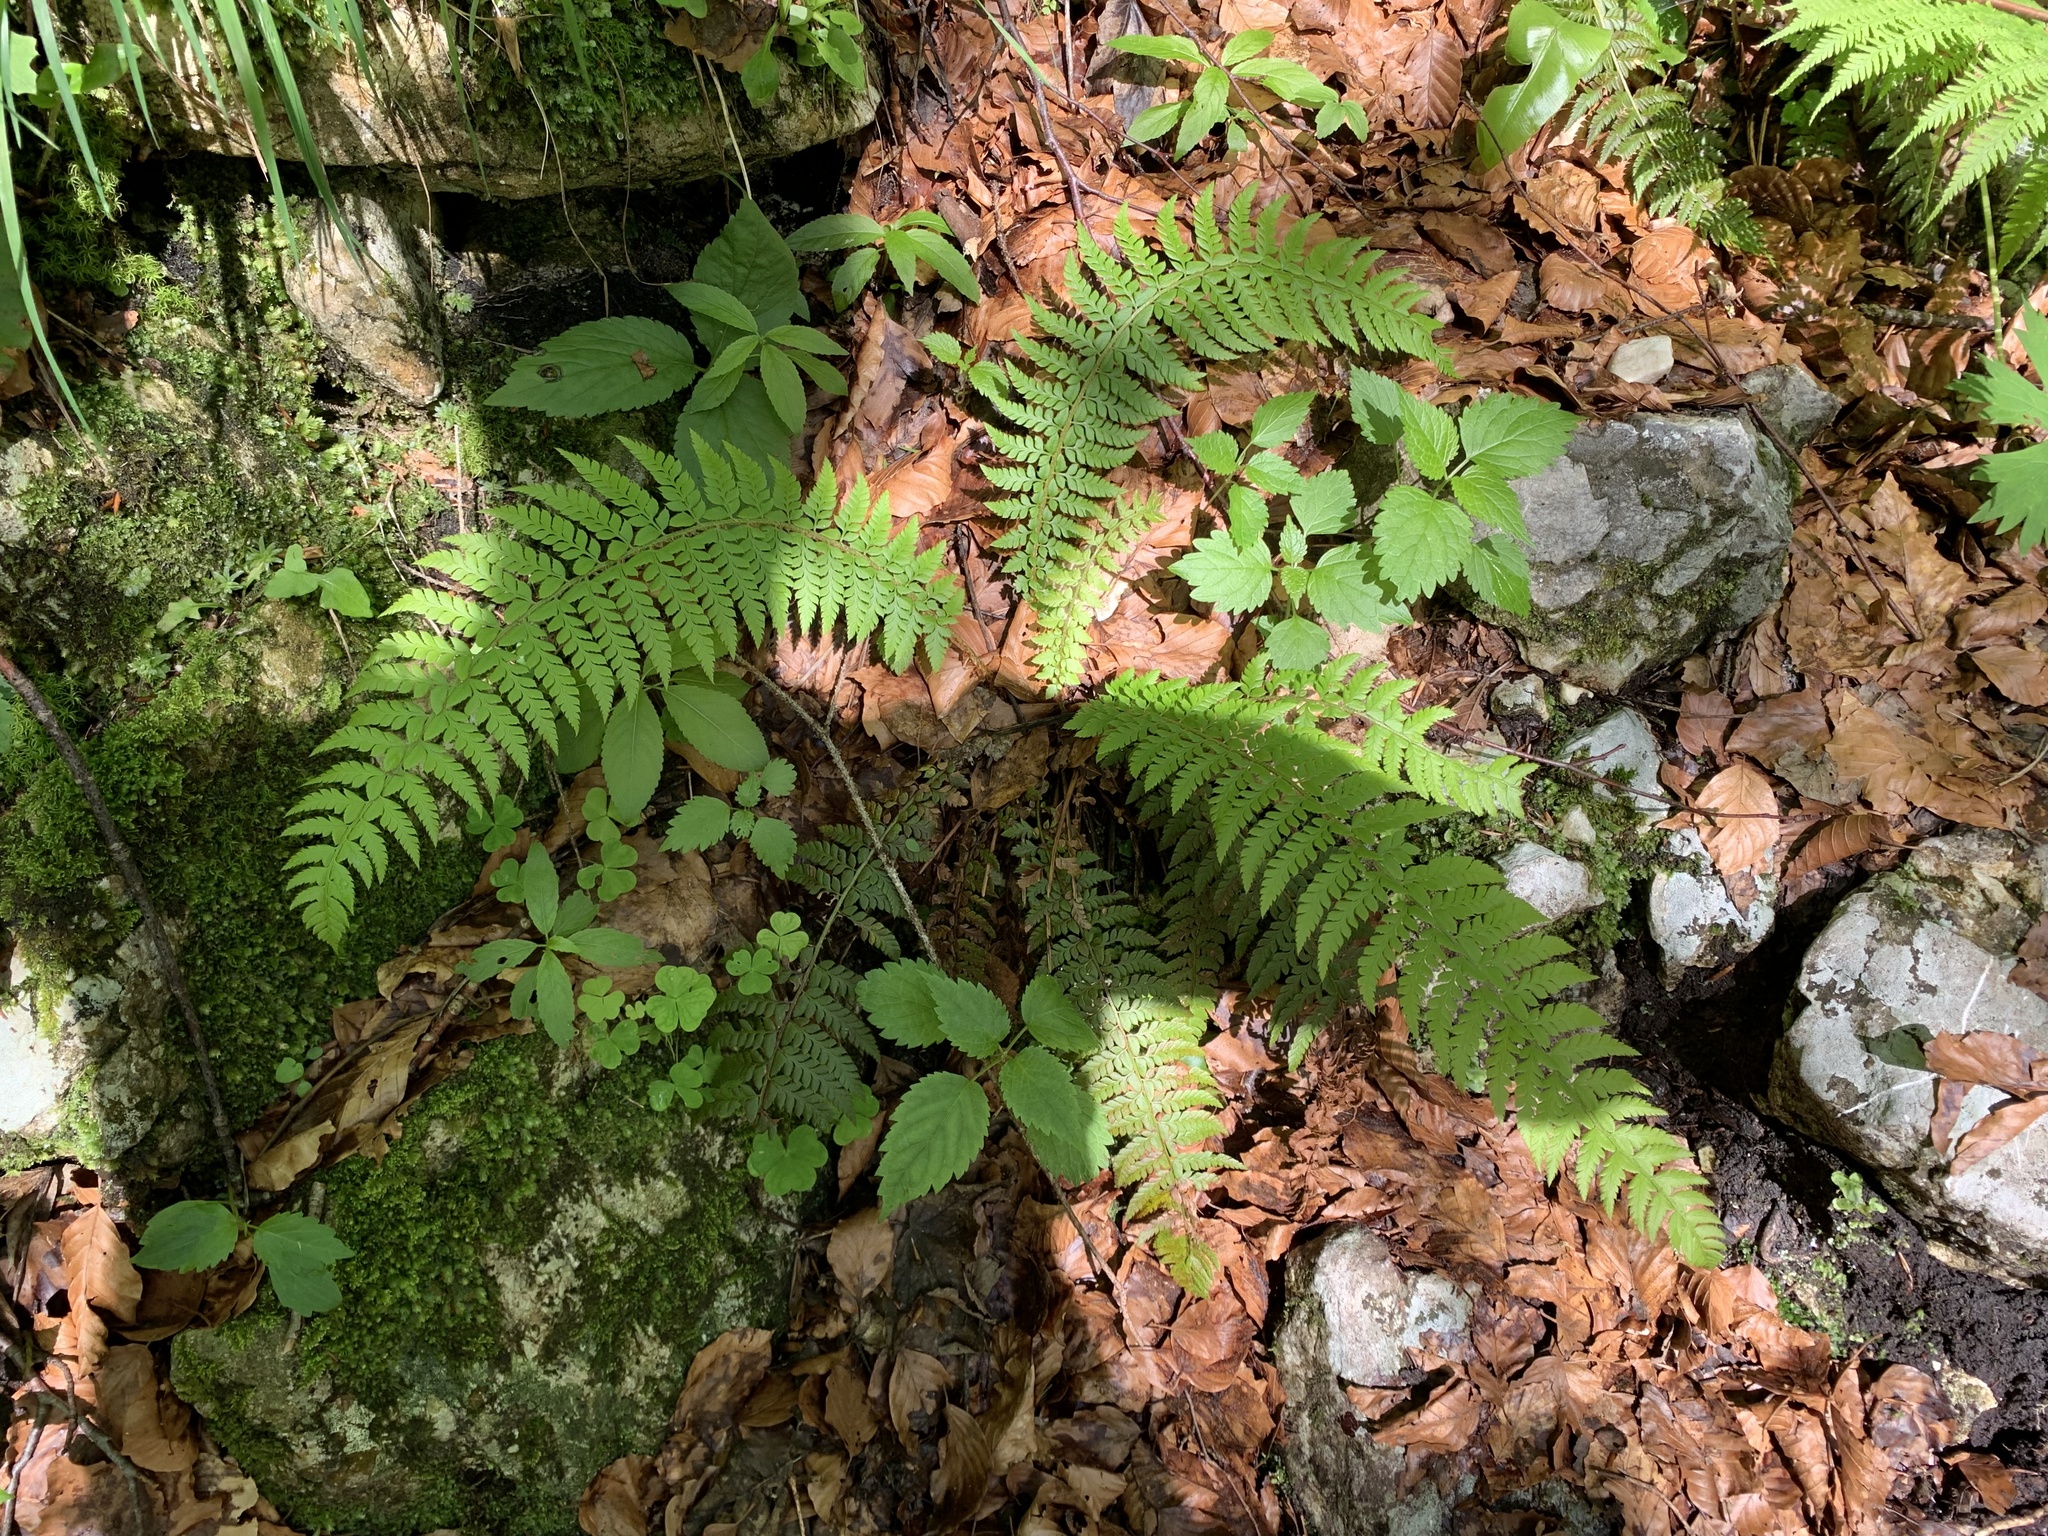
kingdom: Plantae
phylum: Tracheophyta
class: Polypodiopsida
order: Polypodiales
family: Dryopteridaceae
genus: Polystichum
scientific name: Polystichum aculeatum
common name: Hard shield-fern
